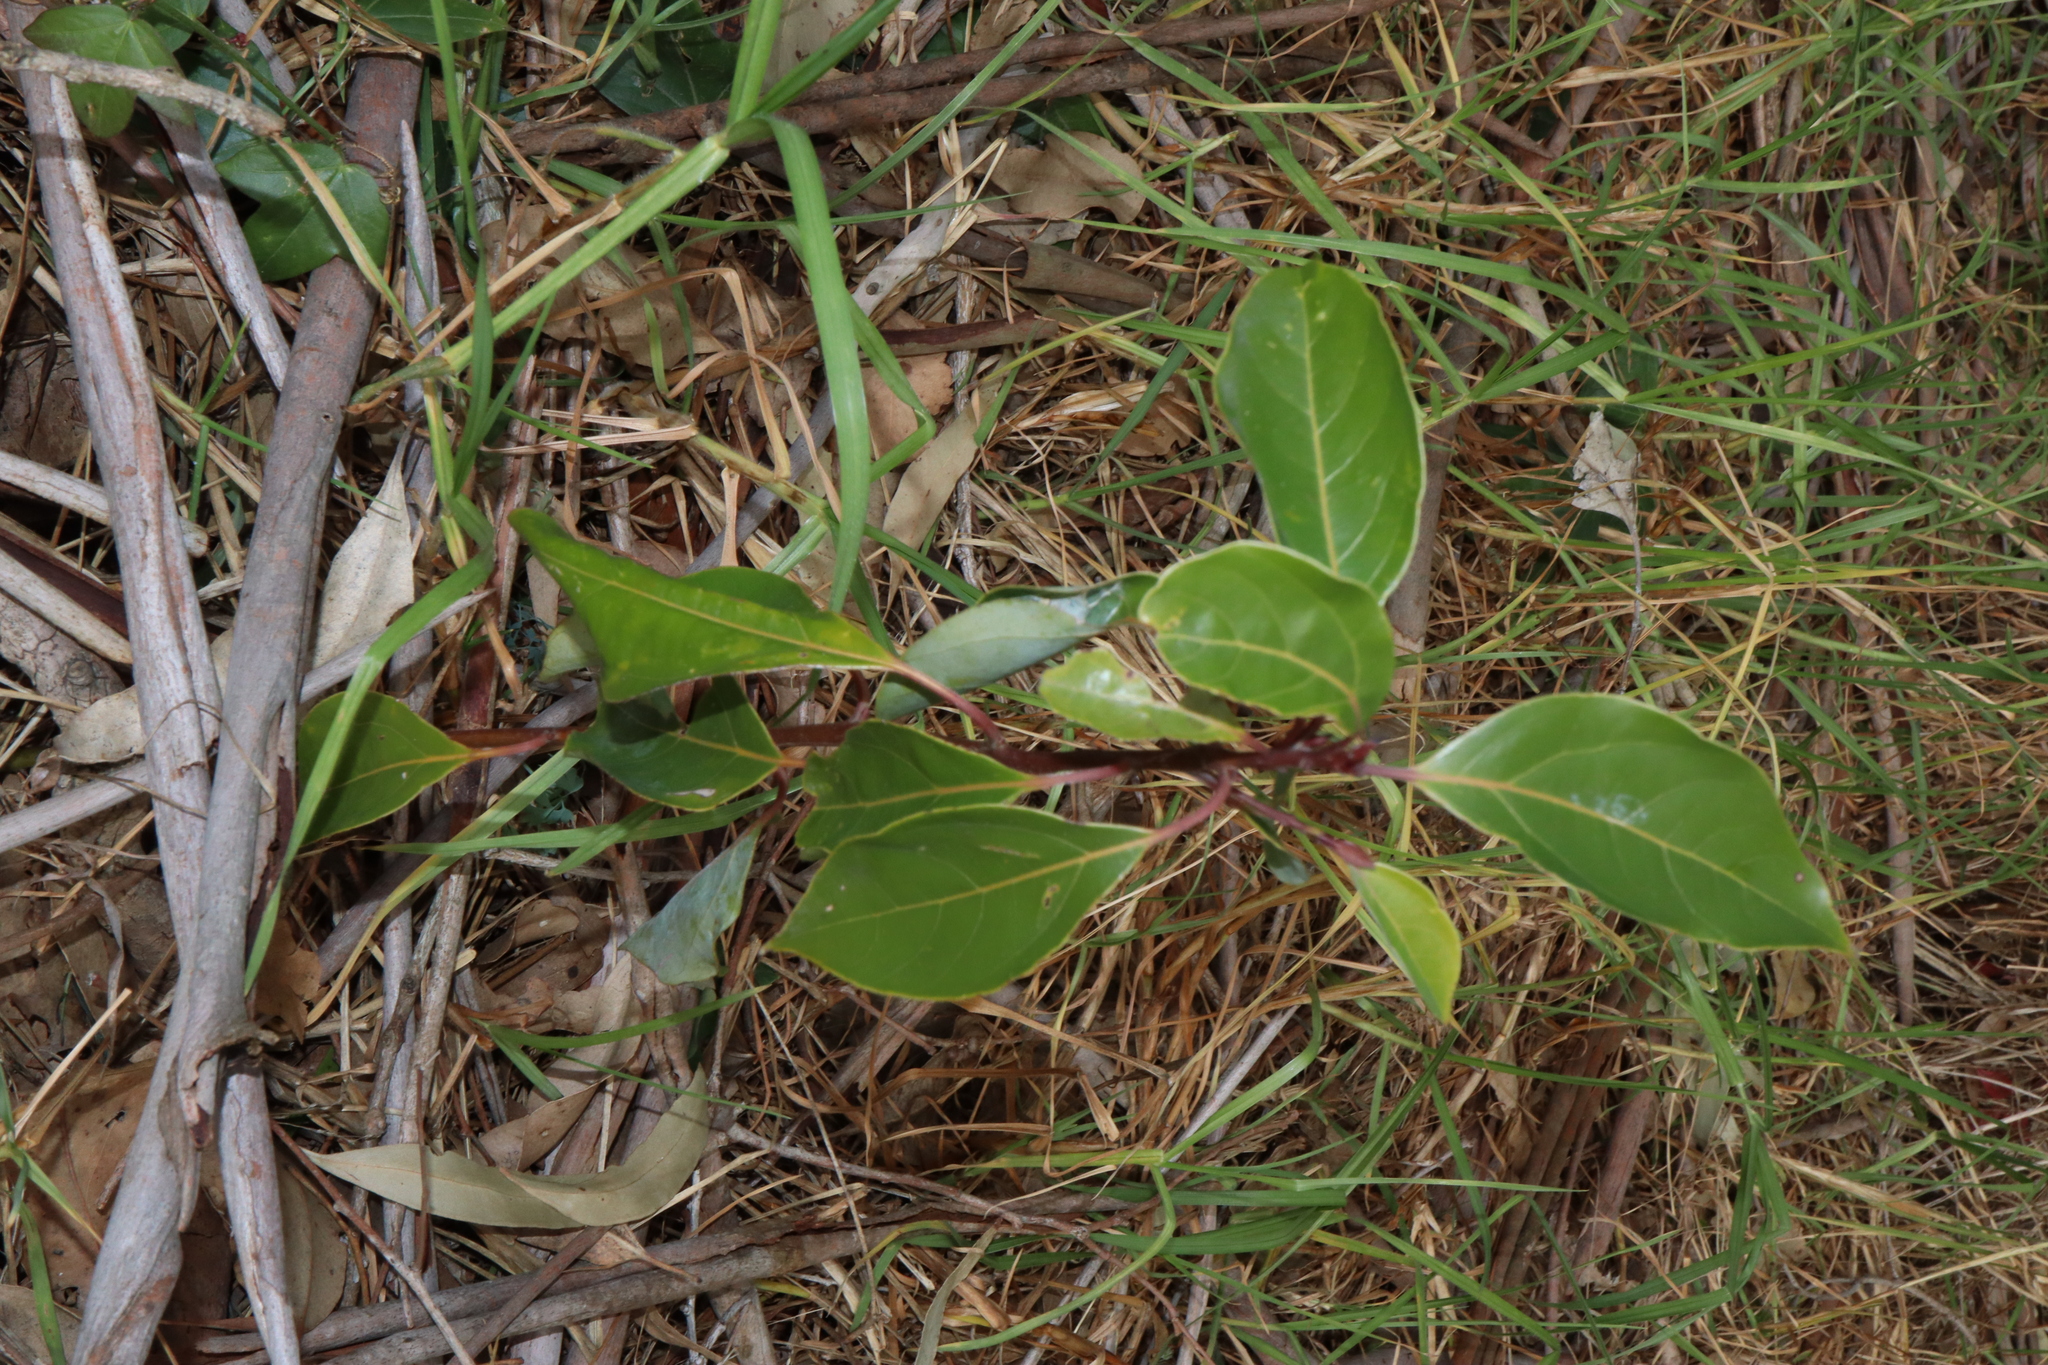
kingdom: Plantae
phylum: Tracheophyta
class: Magnoliopsida
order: Laurales
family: Lauraceae
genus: Cinnamomum
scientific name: Cinnamomum camphora
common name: Camphortree
